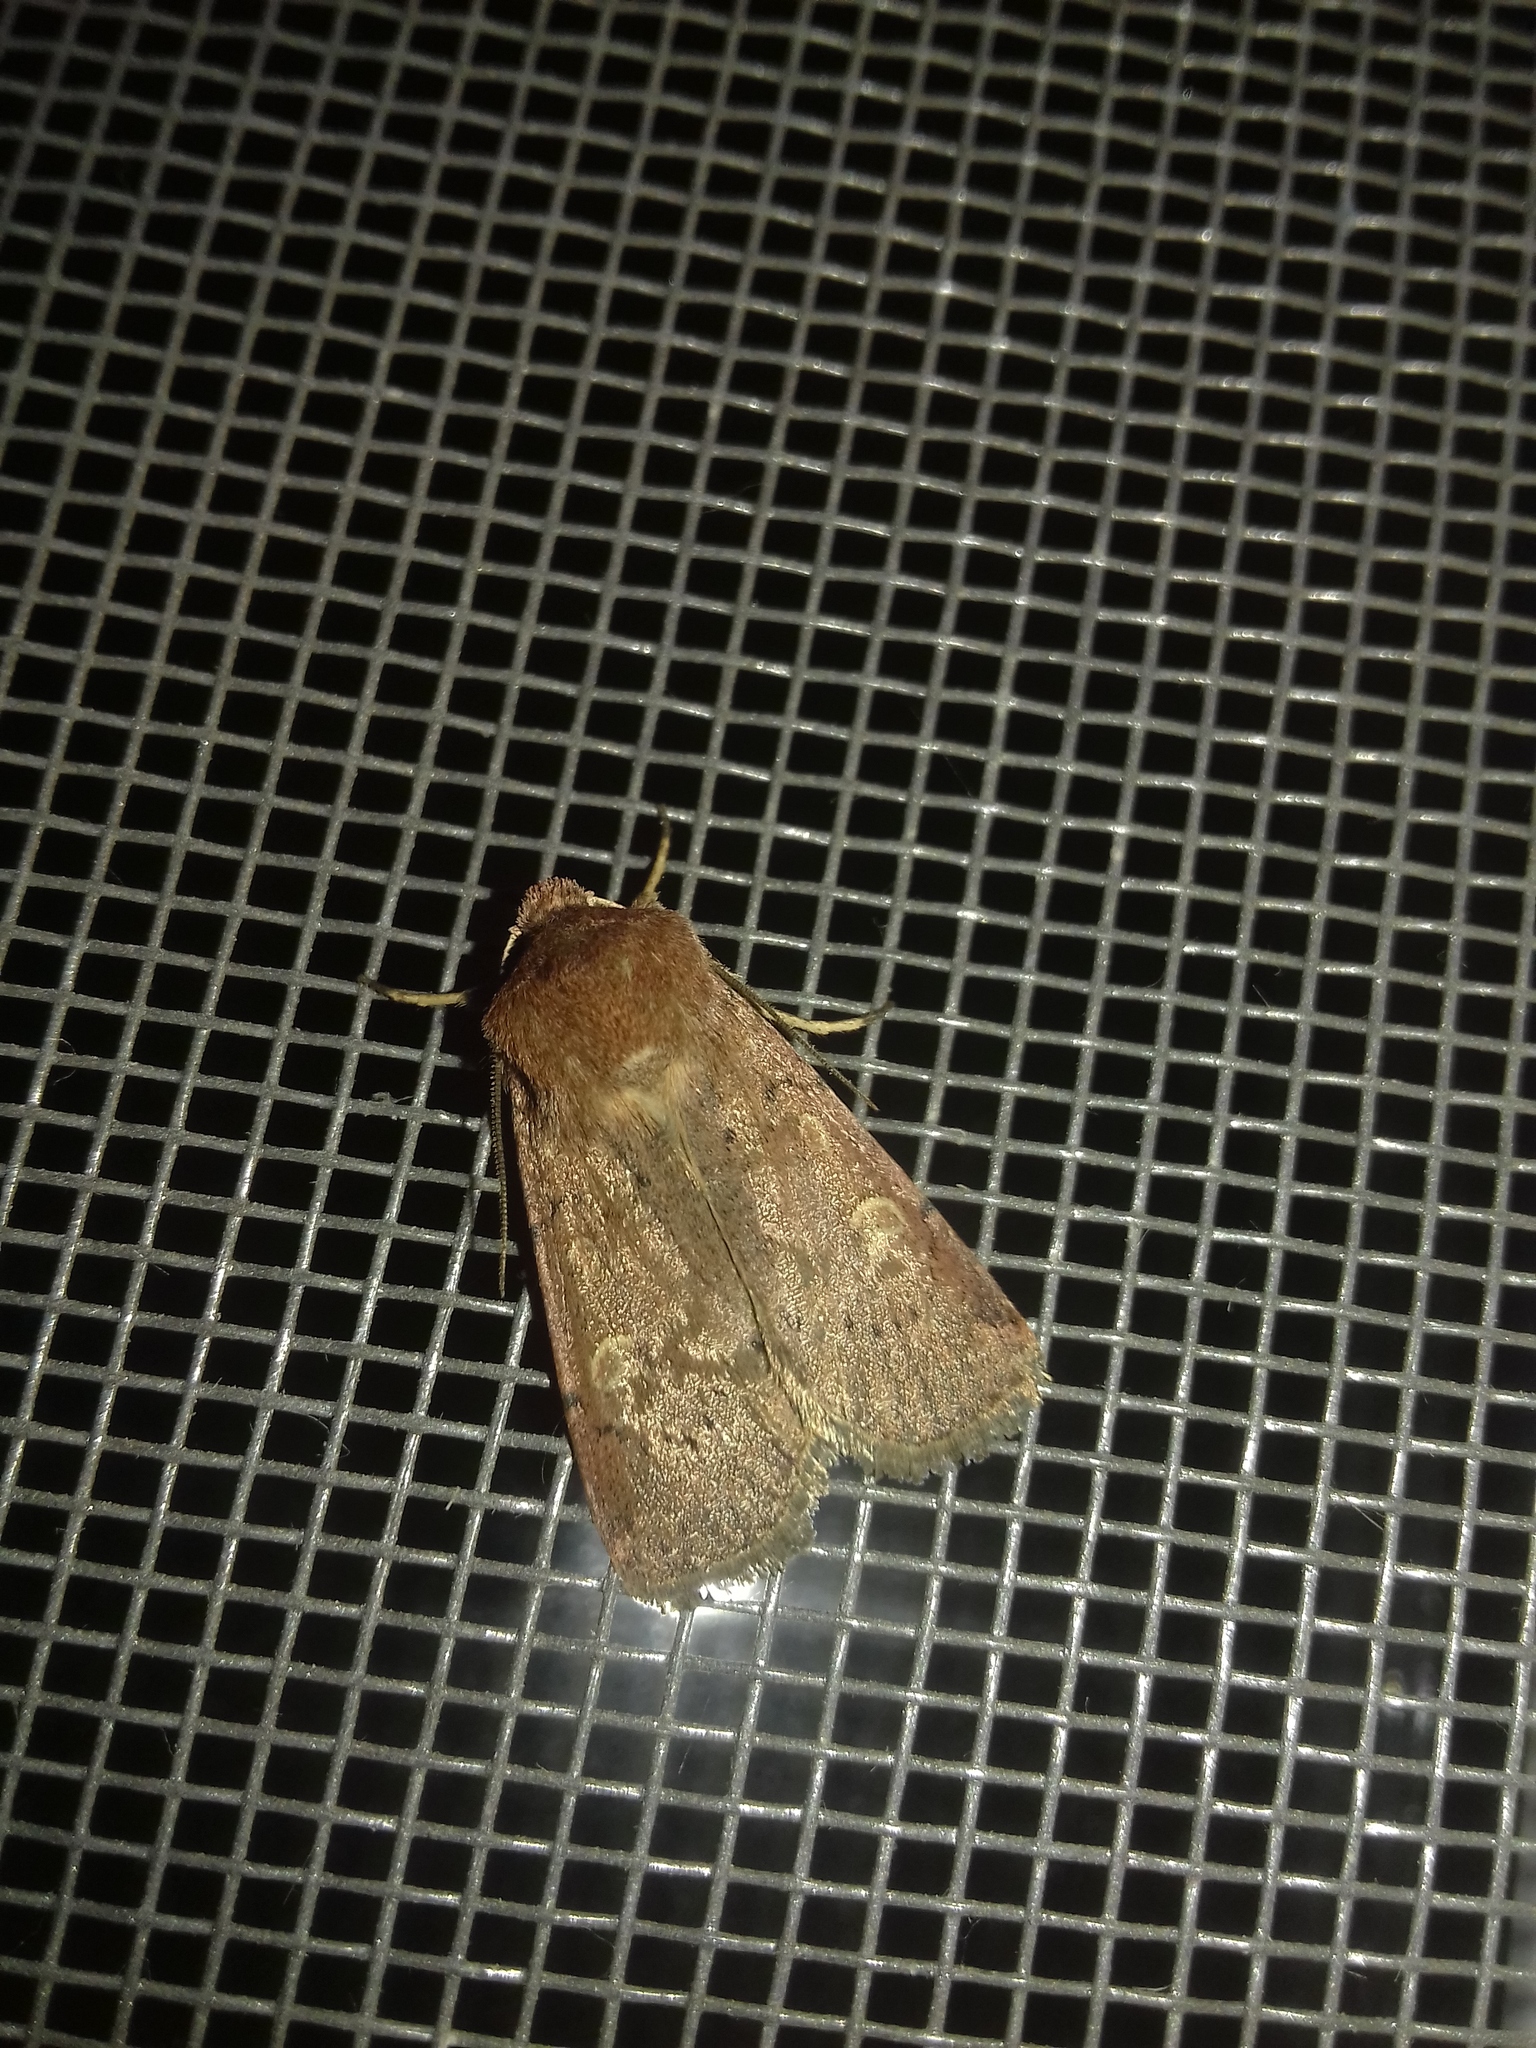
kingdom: Animalia
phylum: Arthropoda
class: Insecta
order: Lepidoptera
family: Noctuidae
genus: Xestia
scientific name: Xestia xanthographa
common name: Square-spot rustic
